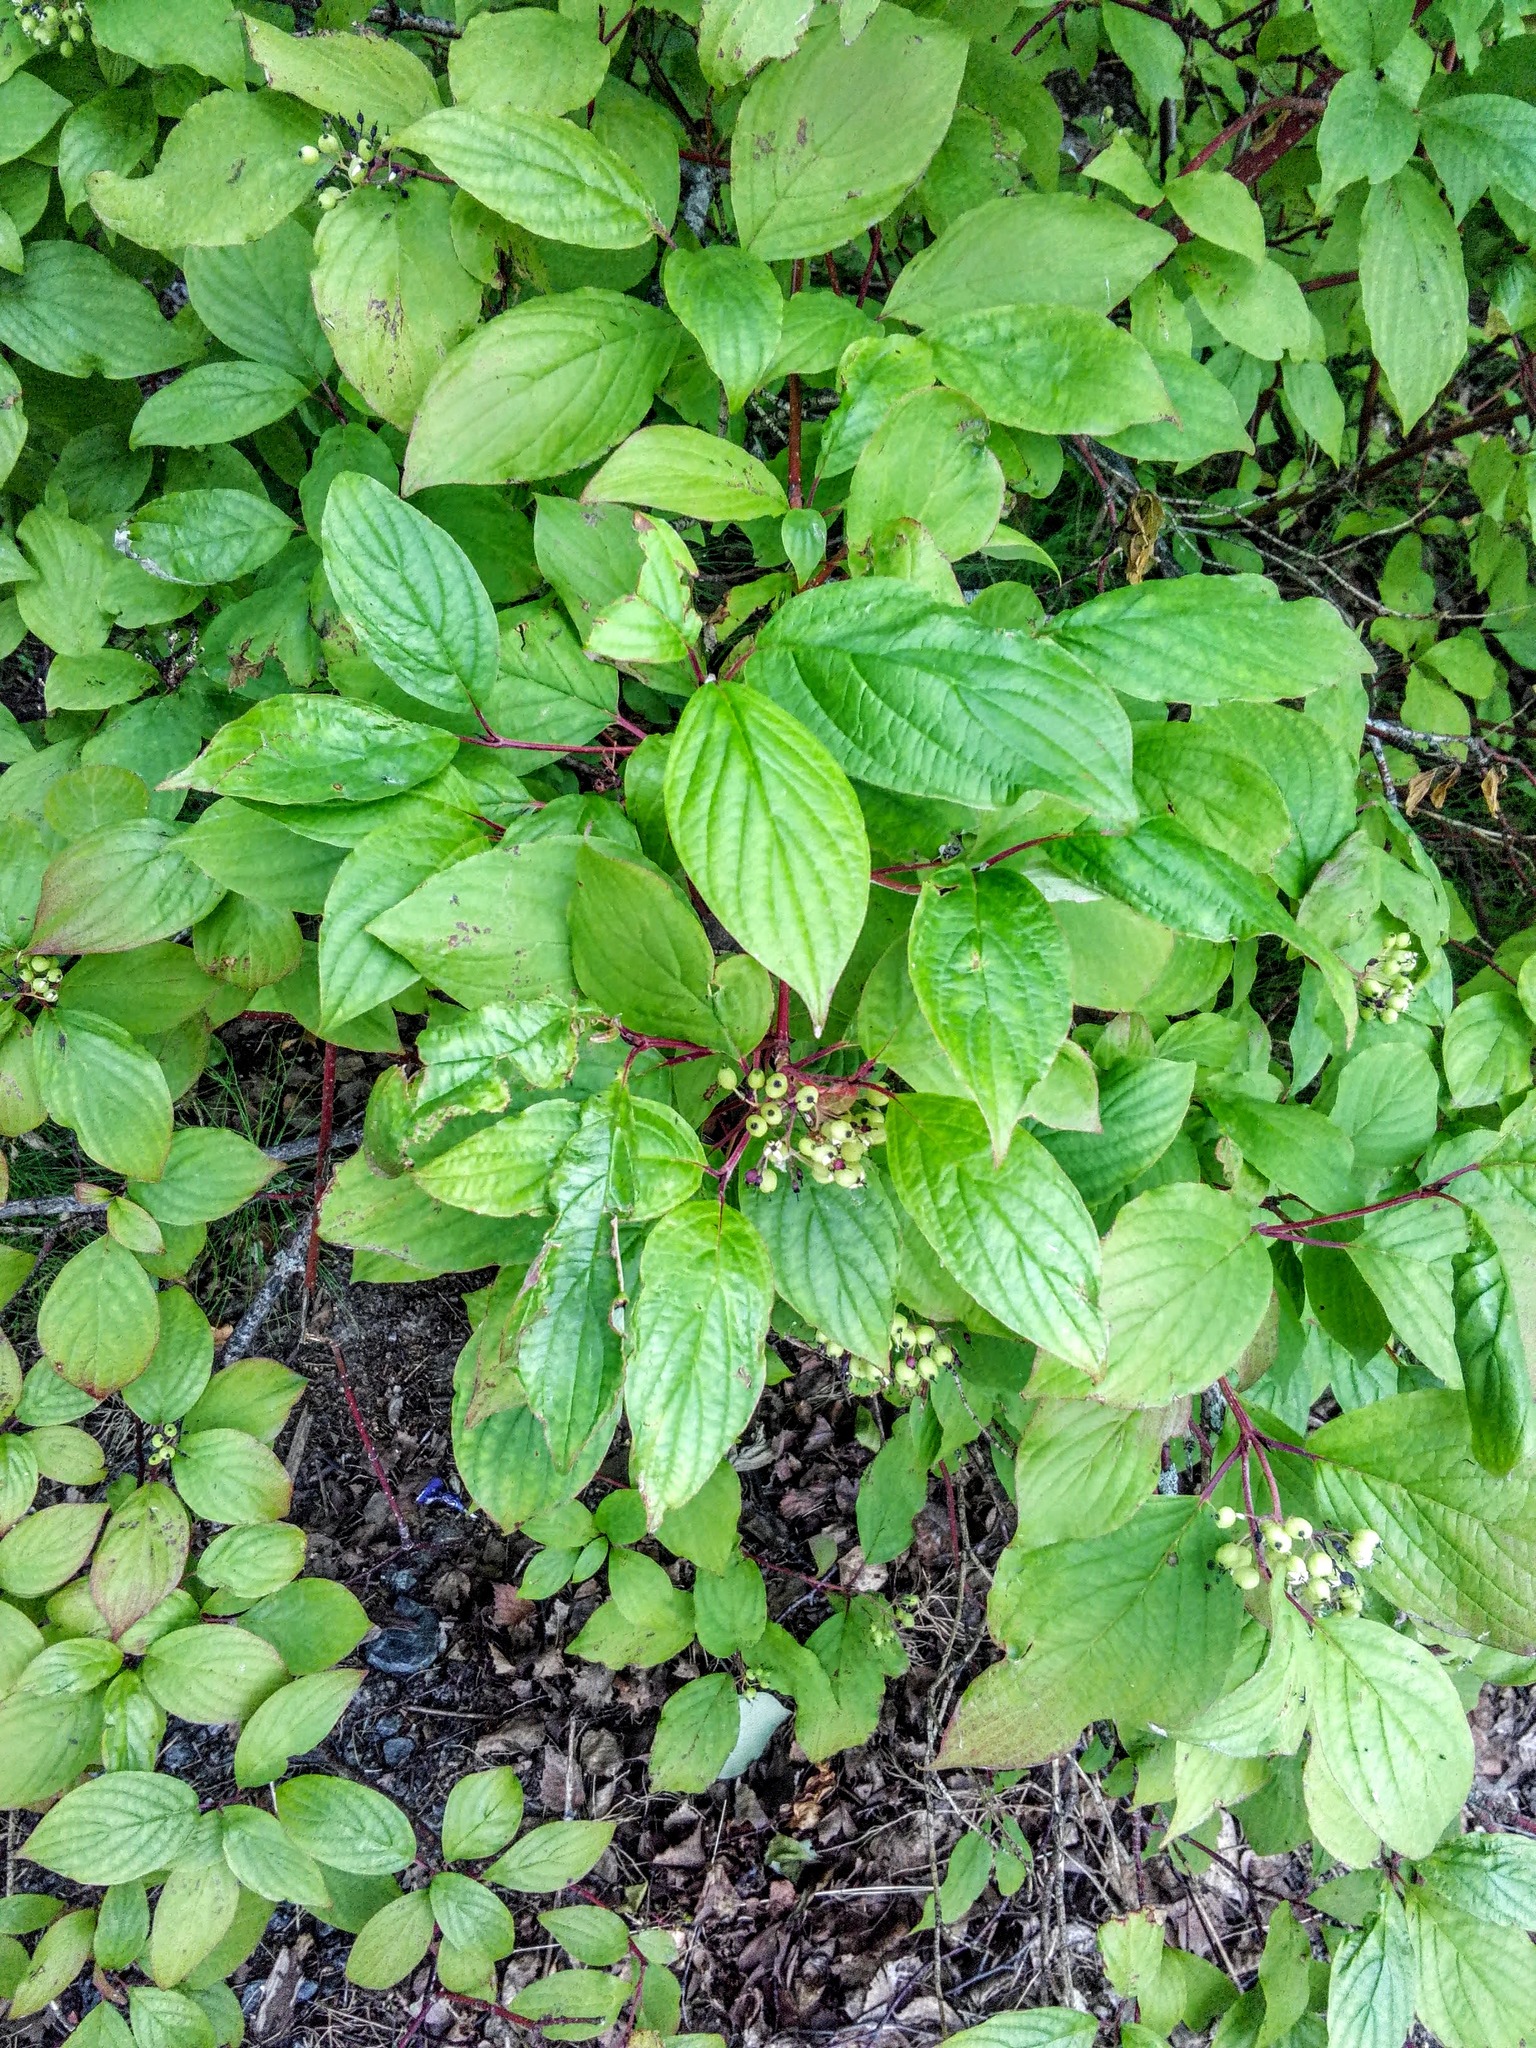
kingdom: Plantae
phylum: Tracheophyta
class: Magnoliopsida
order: Cornales
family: Cornaceae
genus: Cornus
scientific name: Cornus alba
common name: White dogwood
